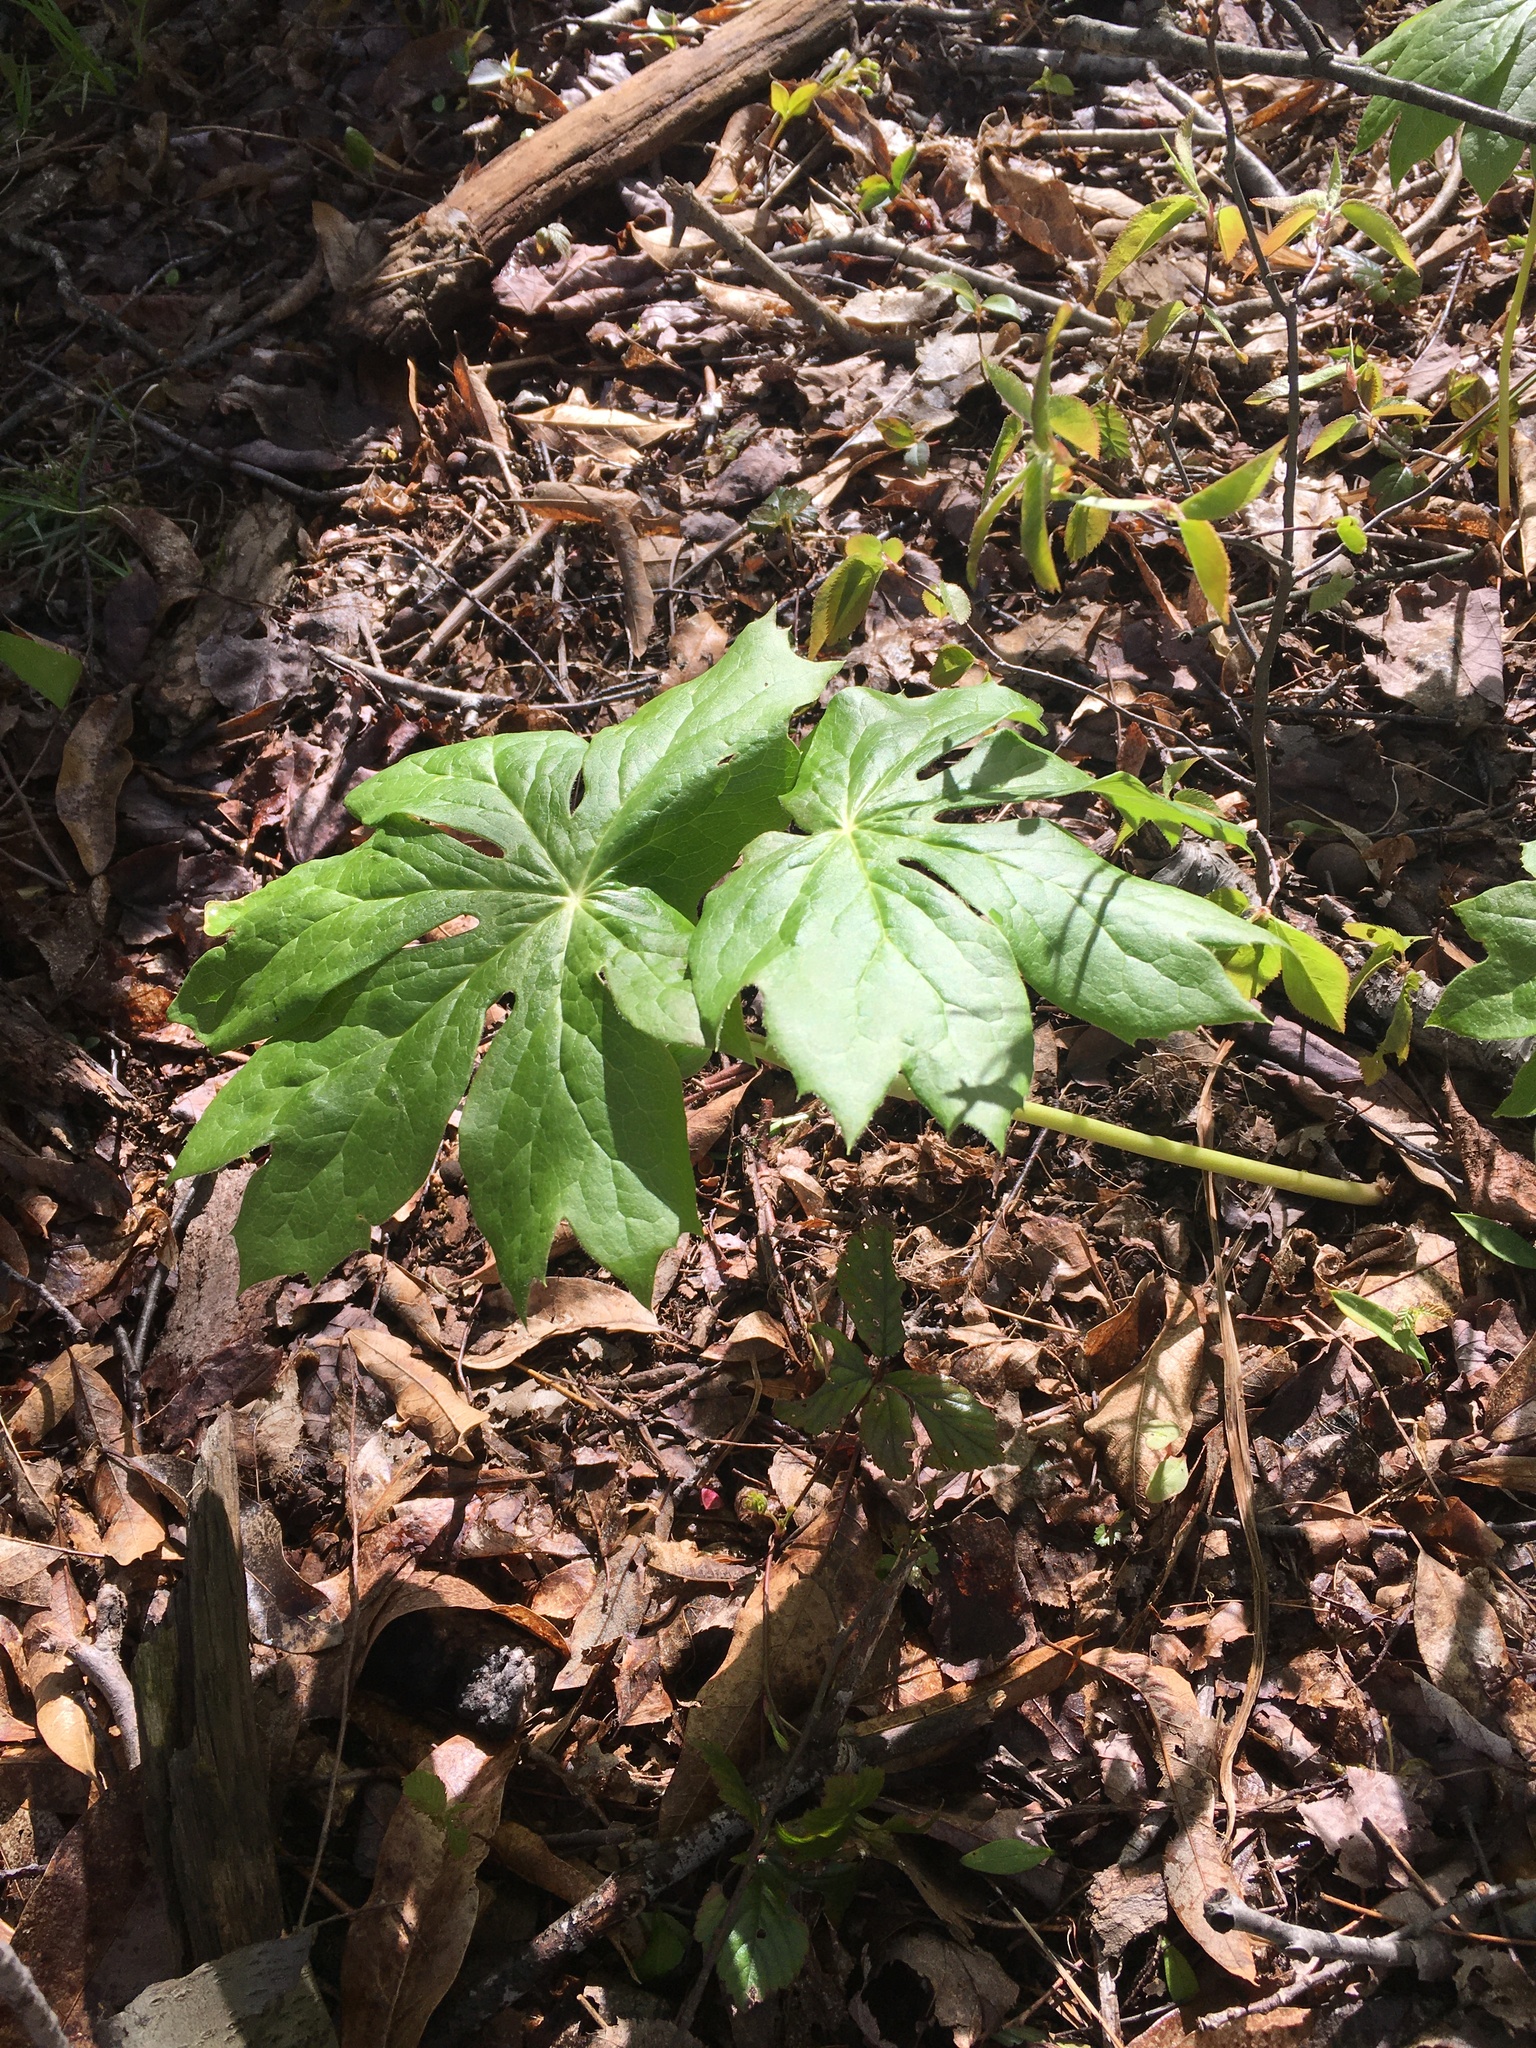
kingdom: Plantae
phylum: Tracheophyta
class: Magnoliopsida
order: Ranunculales
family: Berberidaceae
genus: Podophyllum
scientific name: Podophyllum peltatum
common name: Wild mandrake
